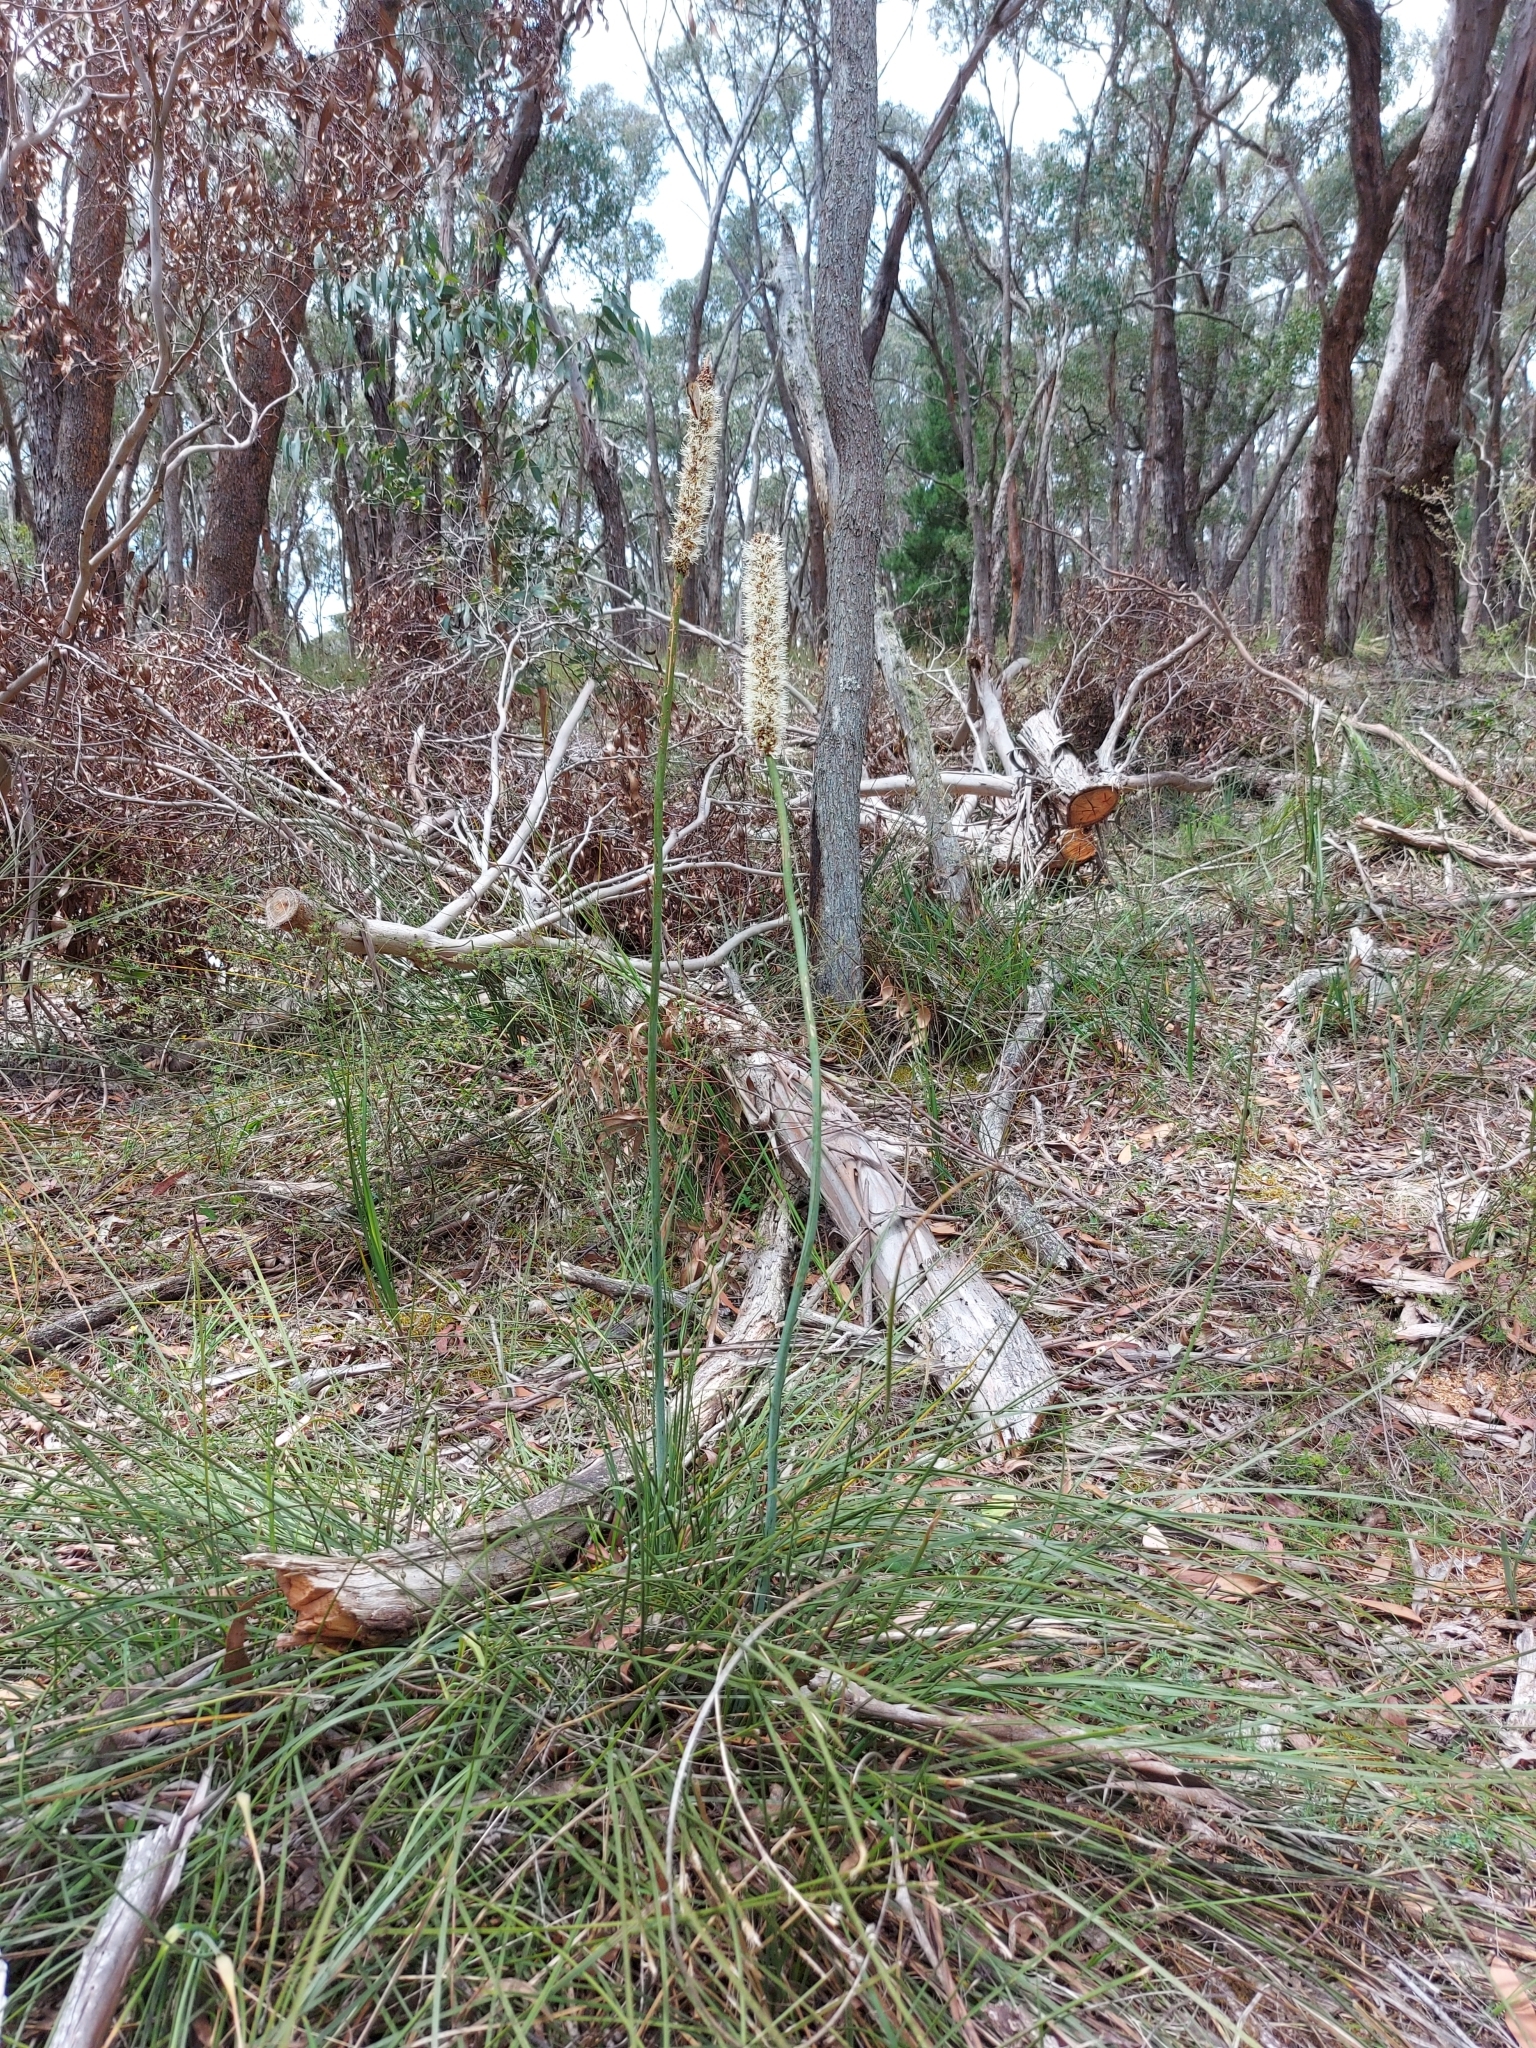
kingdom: Plantae
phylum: Tracheophyta
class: Liliopsida
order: Asparagales
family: Asphodelaceae
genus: Xanthorrhoea
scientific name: Xanthorrhoea minor
